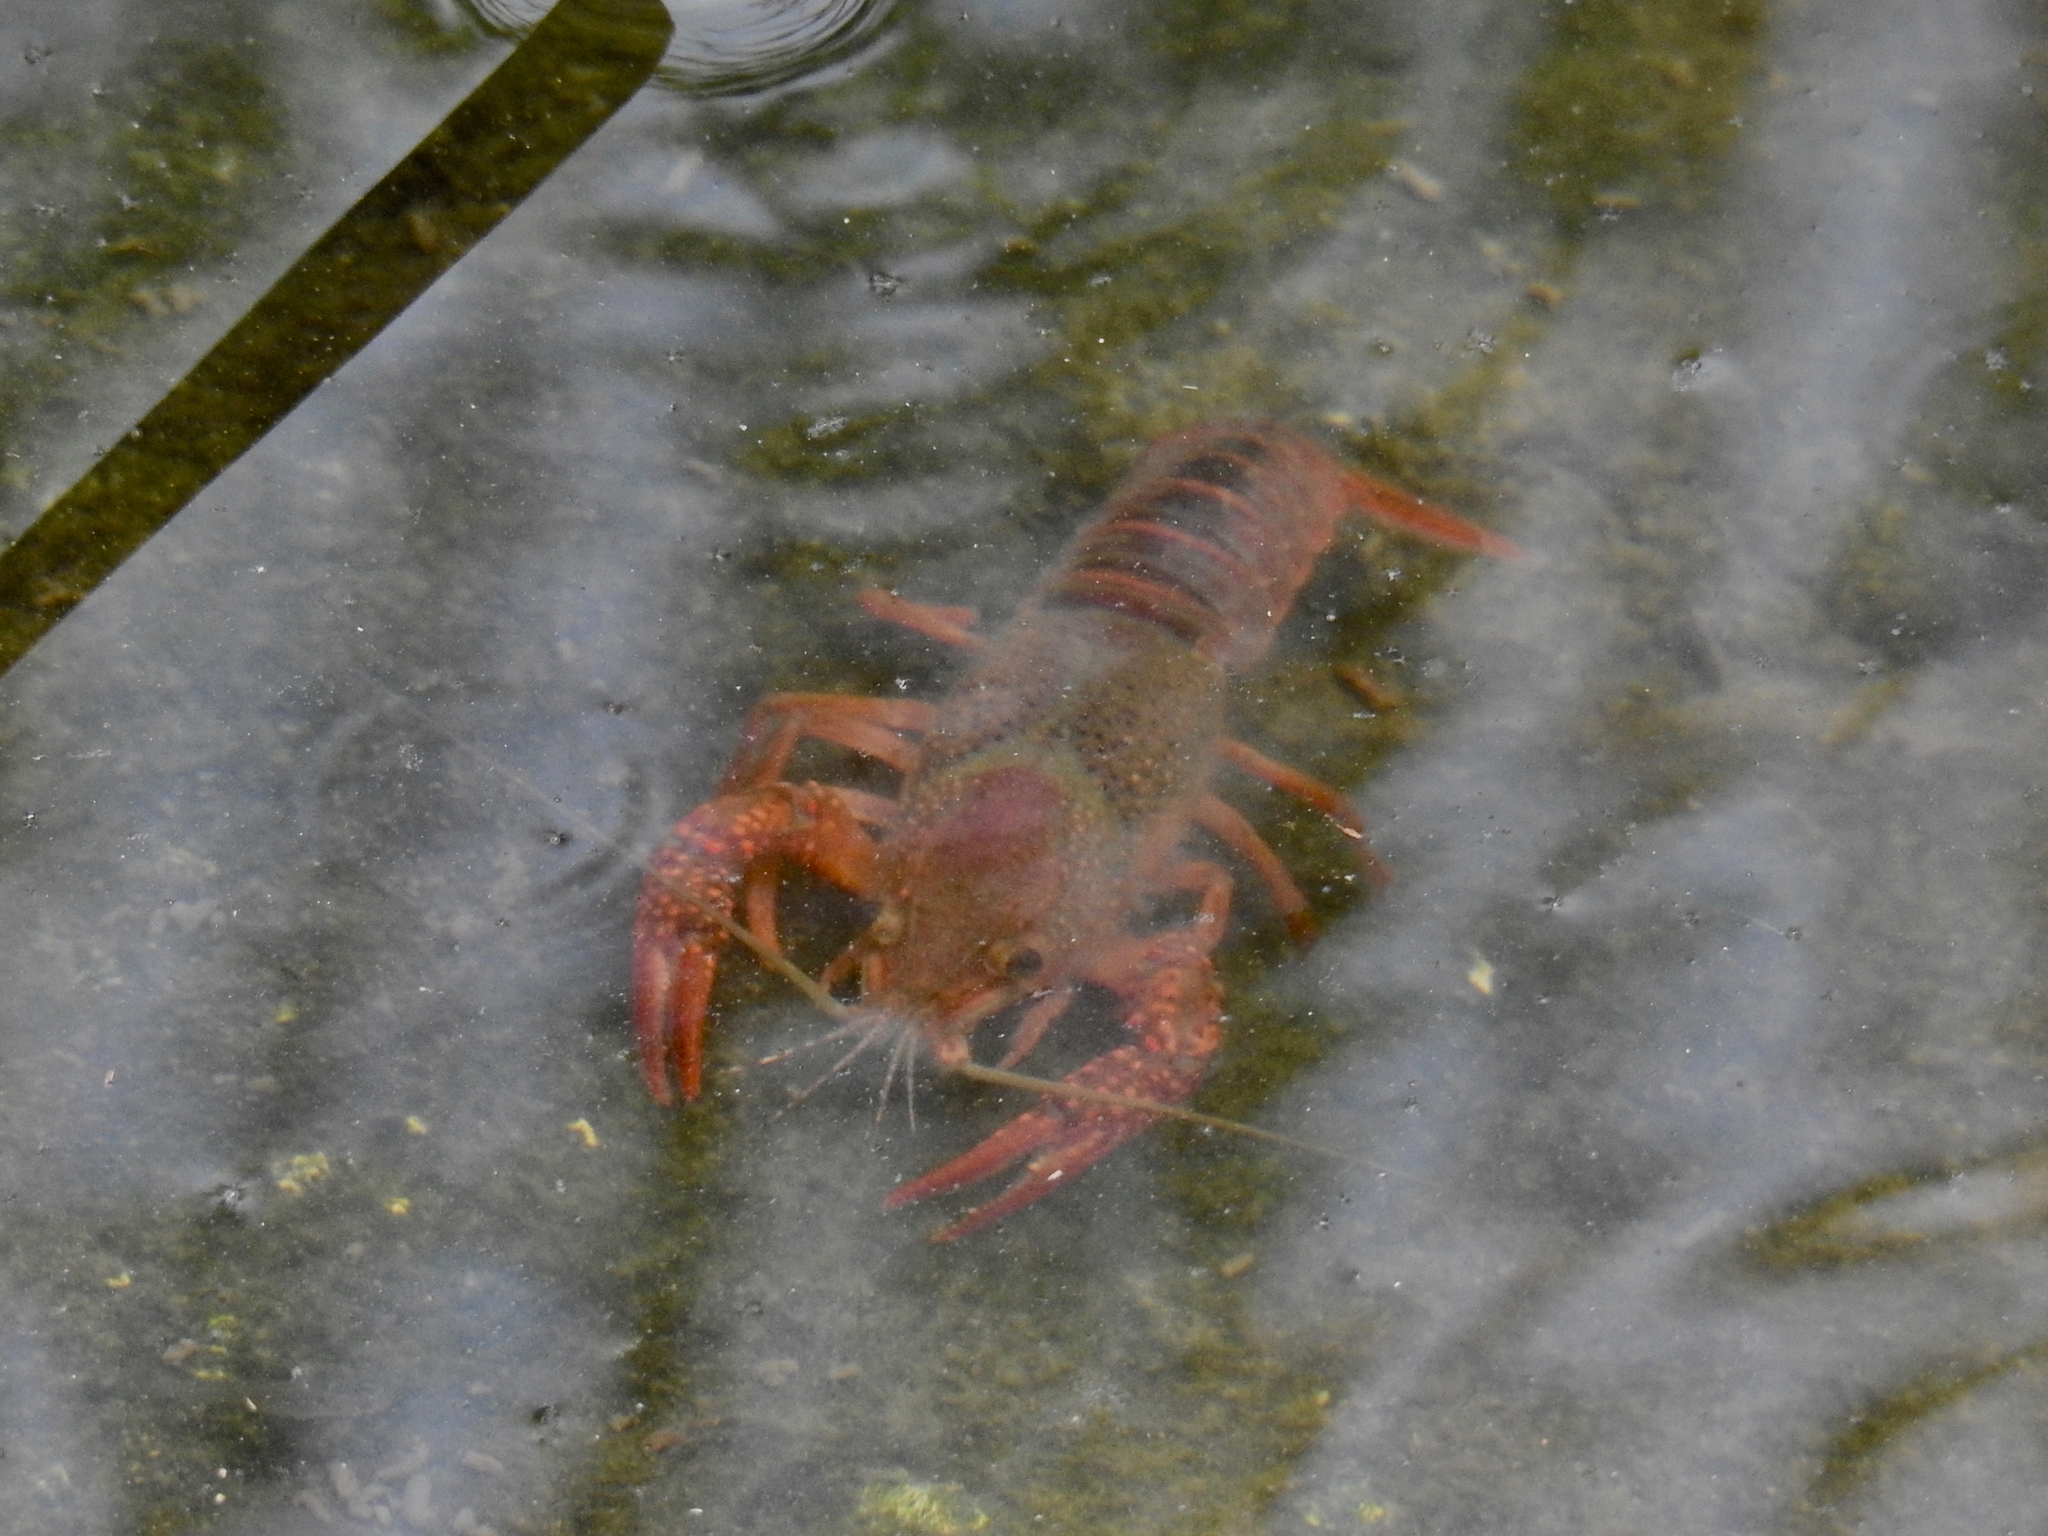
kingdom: Animalia
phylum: Arthropoda
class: Malacostraca
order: Decapoda
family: Cambaridae
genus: Procambarus
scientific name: Procambarus clarkii
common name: Red swamp crayfish
